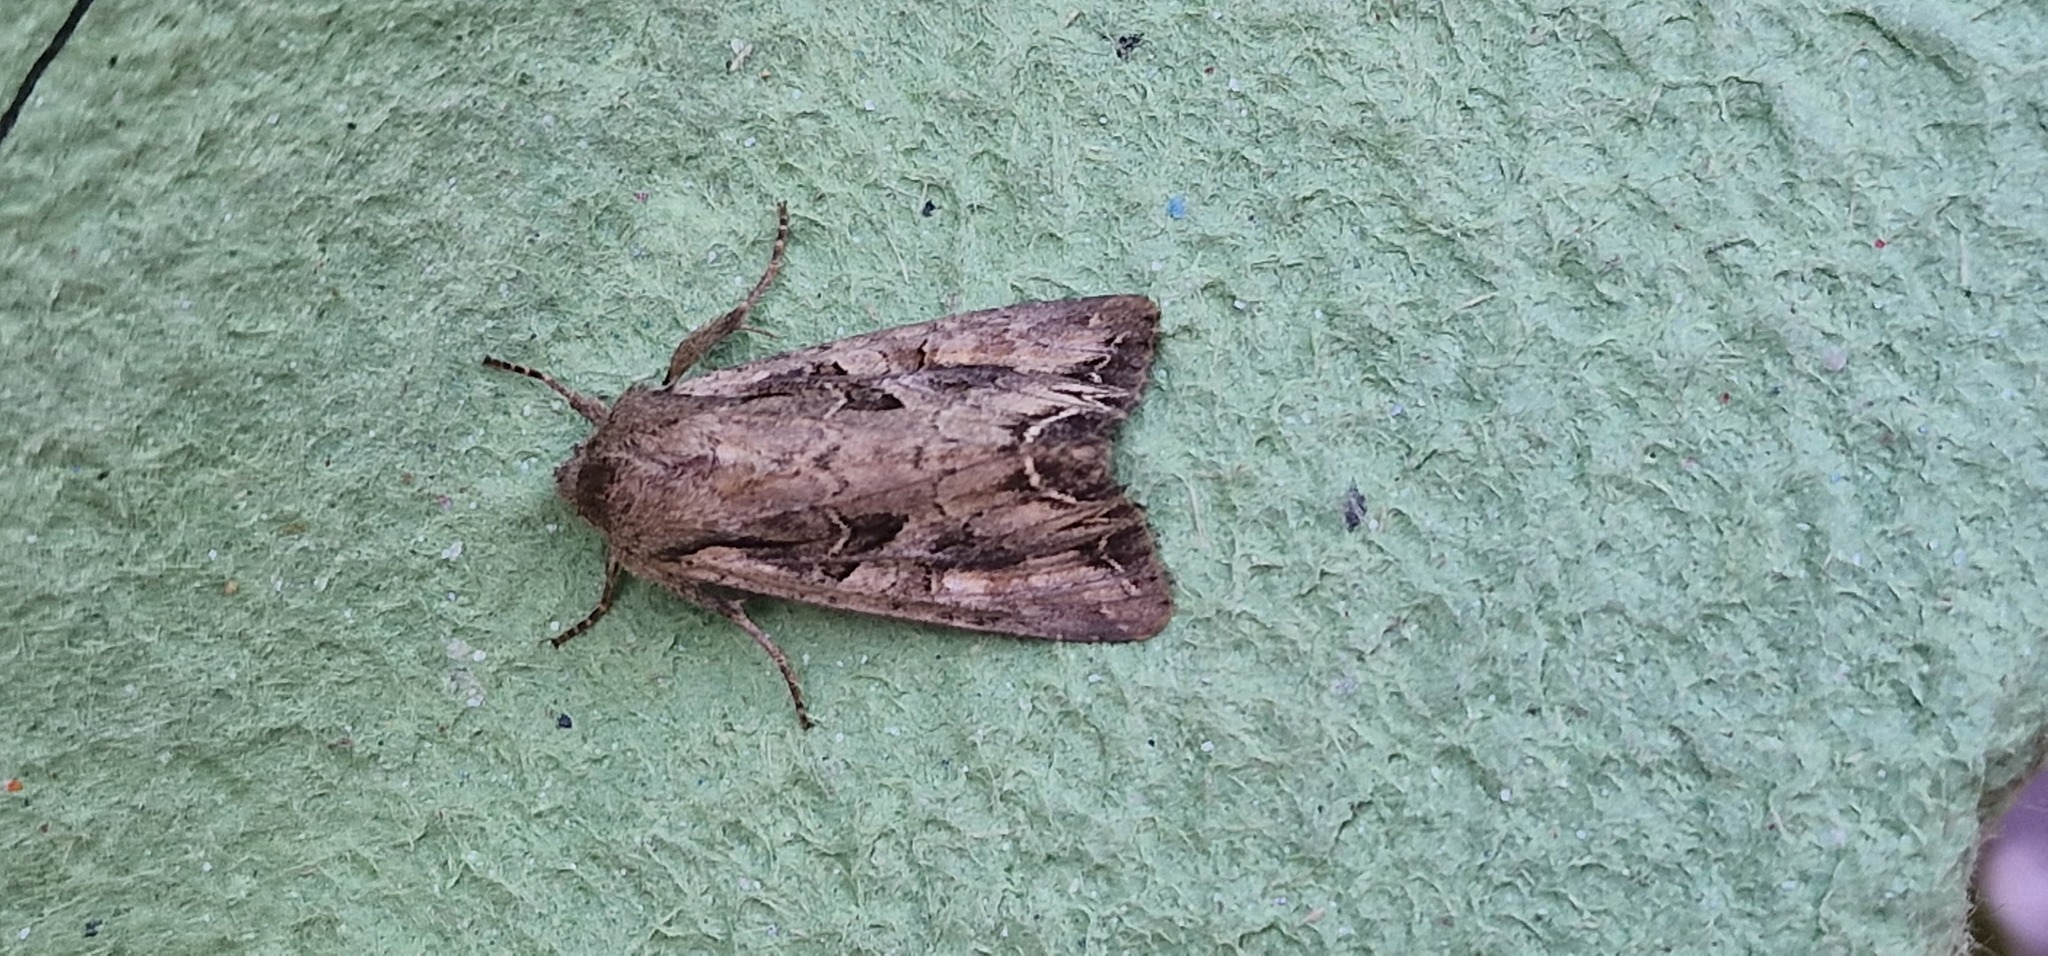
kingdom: Animalia
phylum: Arthropoda
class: Insecta
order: Lepidoptera
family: Noctuidae
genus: Lacanobia
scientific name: Lacanobia suasa
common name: Dog's tooth
